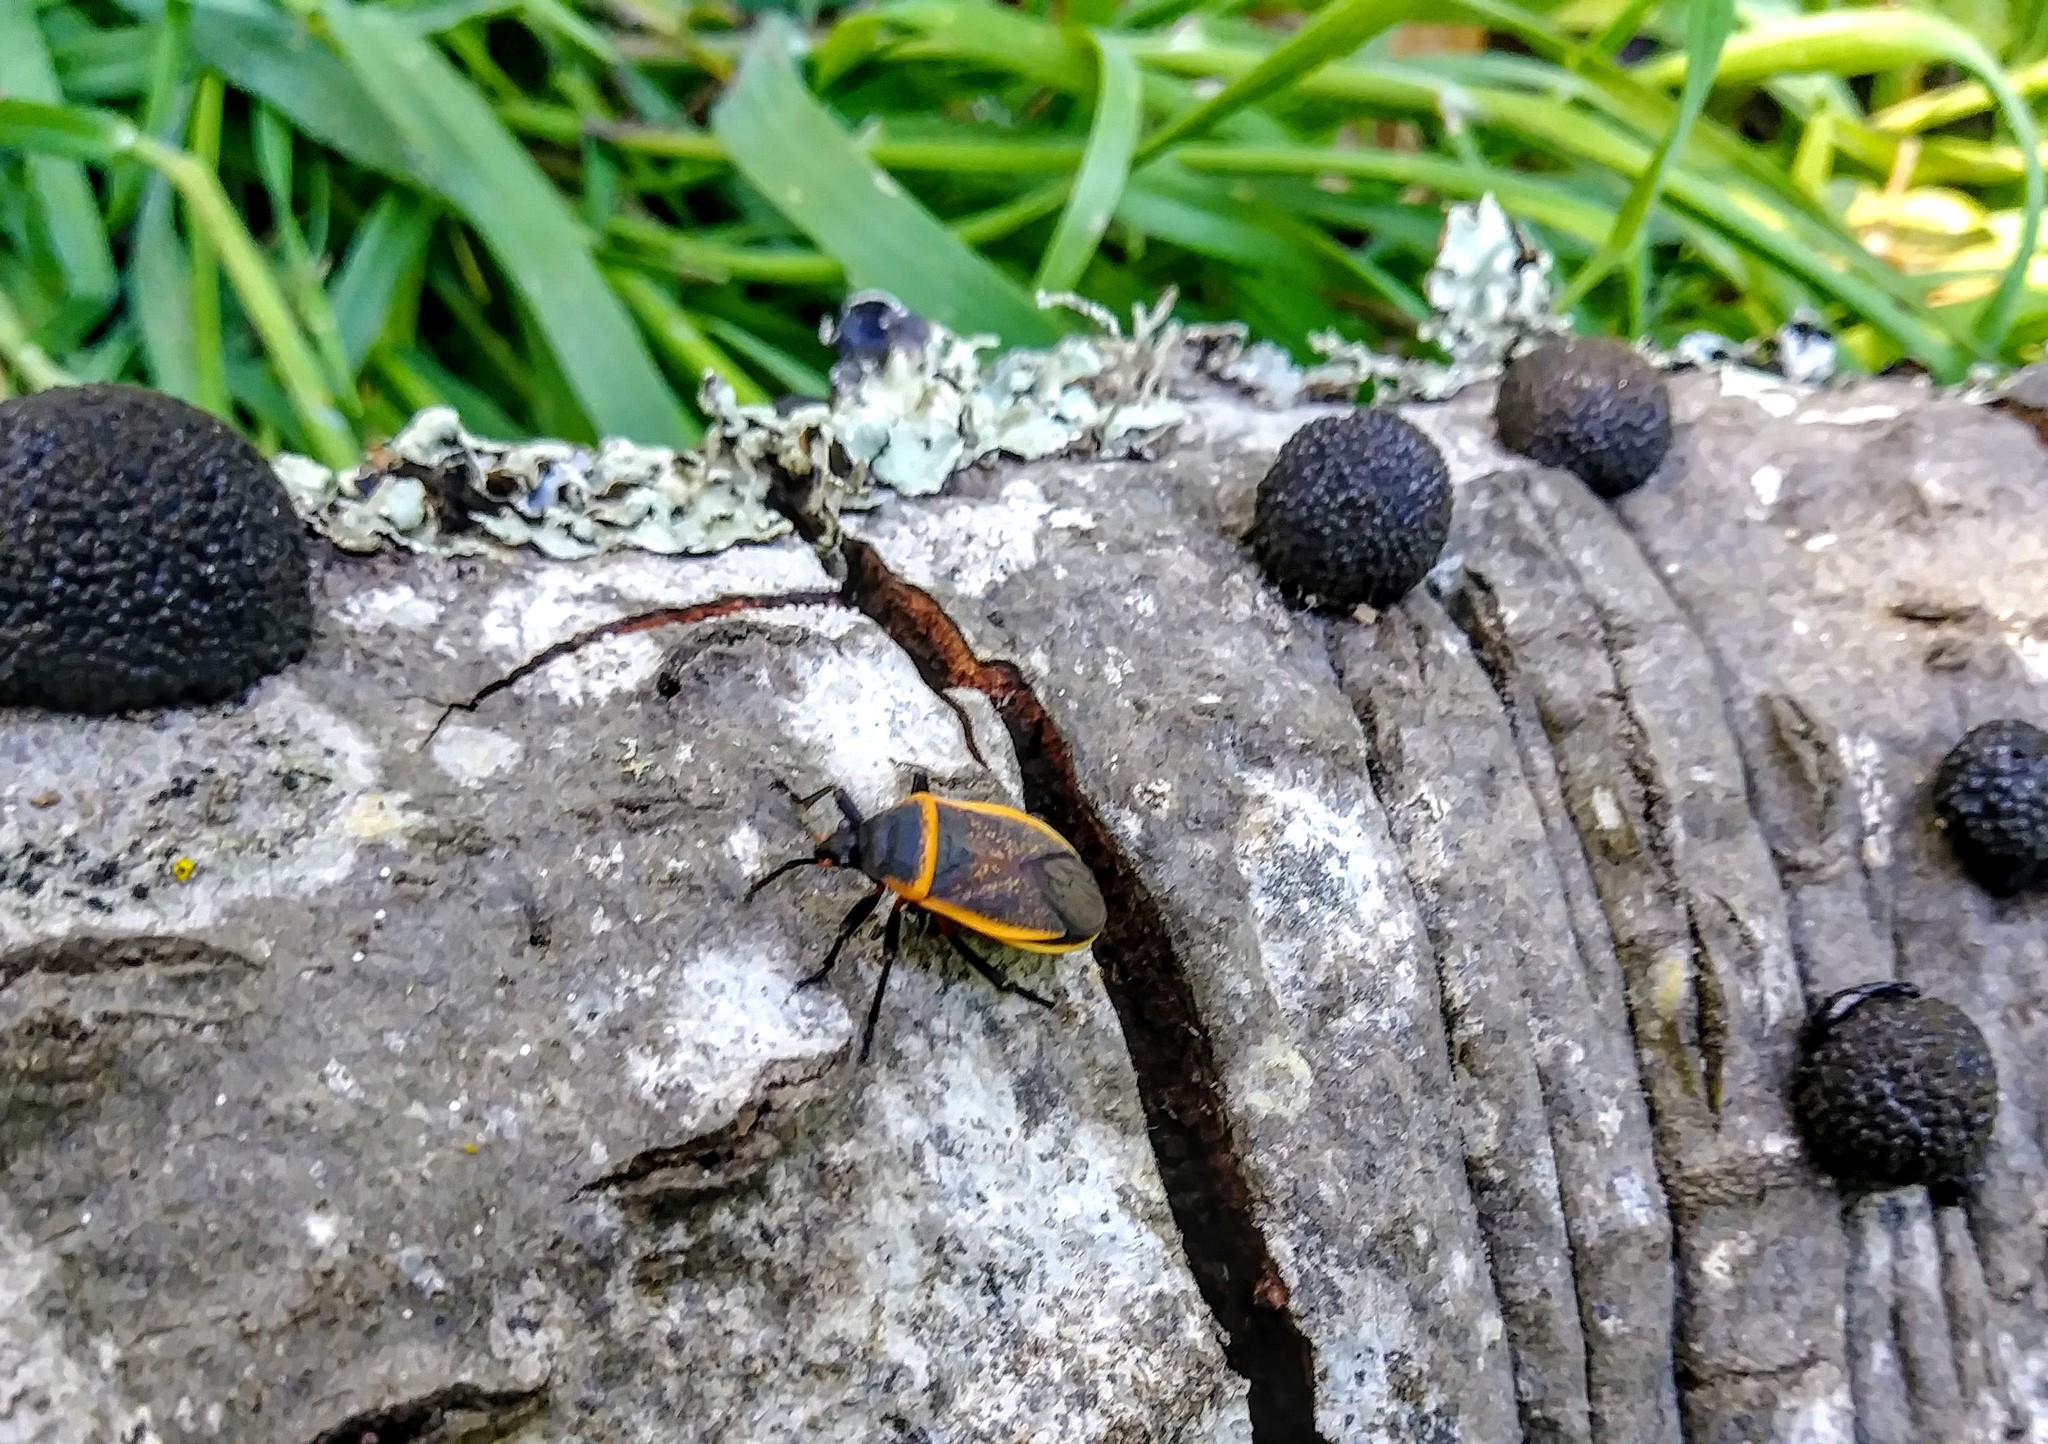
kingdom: Fungi
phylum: Ascomycota
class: Sordariomycetes
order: Xylariales
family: Hypoxylaceae
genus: Annulohypoxylon
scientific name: Annulohypoxylon thouarsianum
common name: Cramp balls
